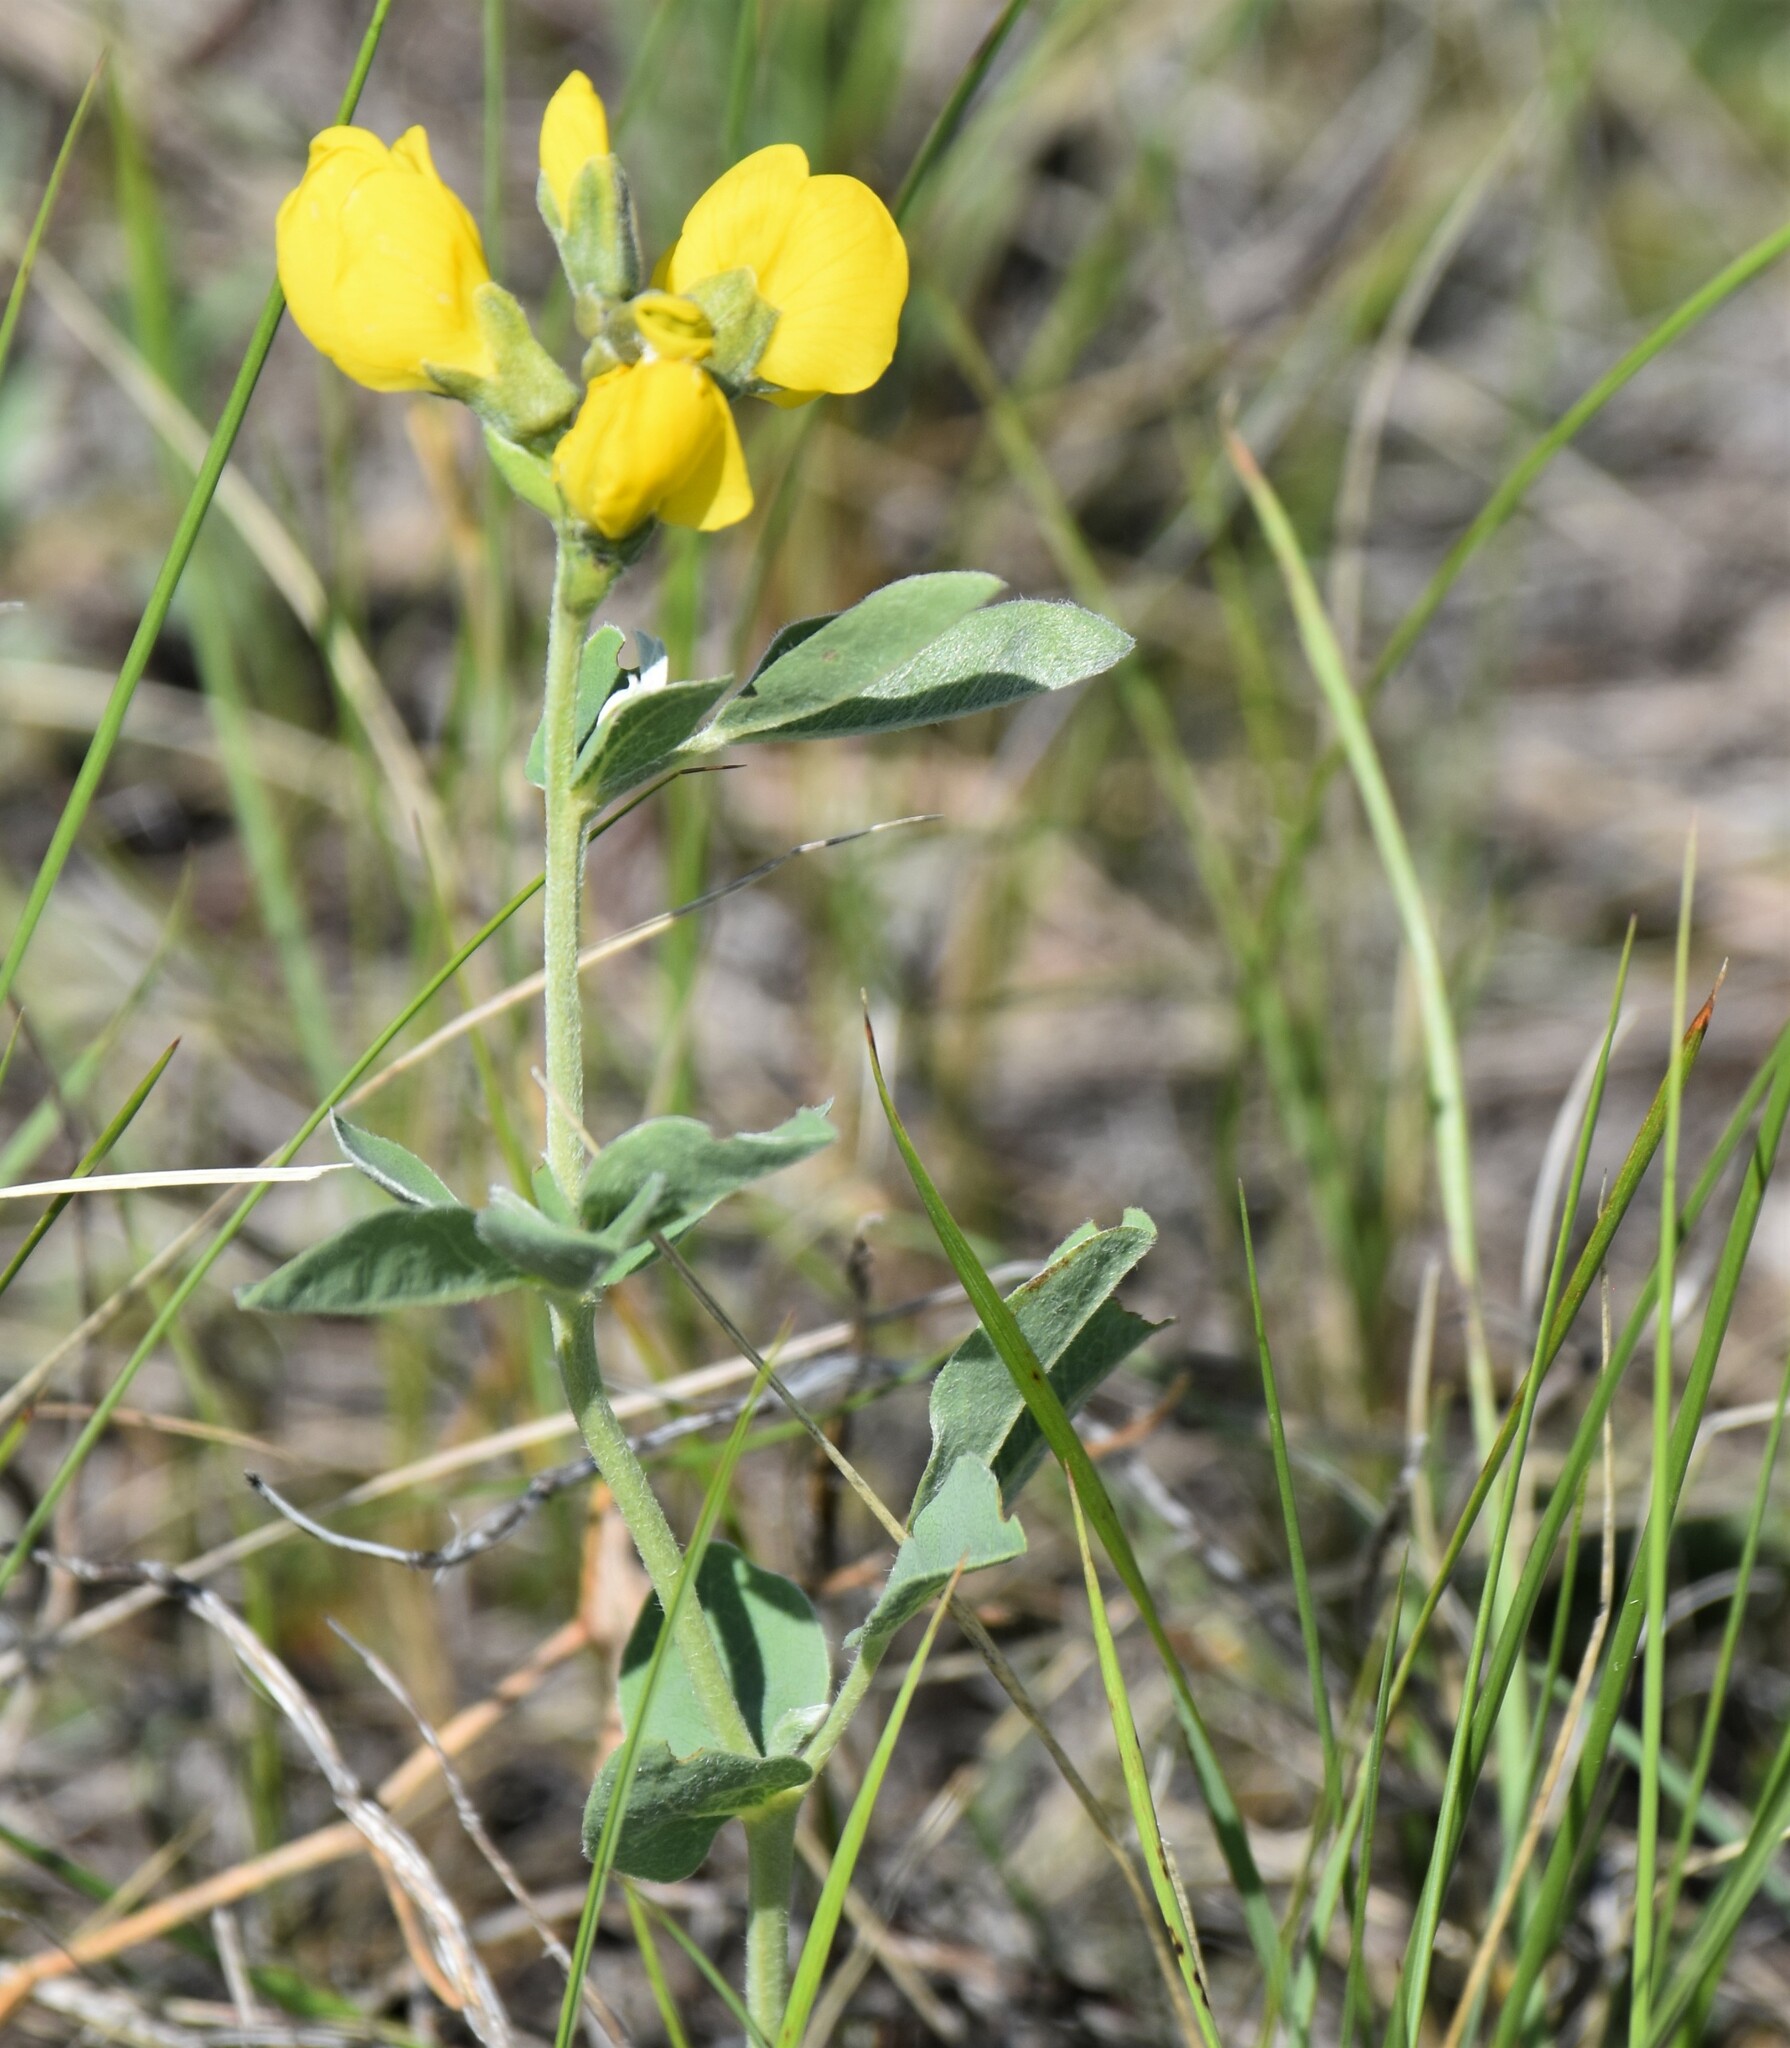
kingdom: Plantae
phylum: Tracheophyta
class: Magnoliopsida
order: Fabales
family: Fabaceae
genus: Thermopsis
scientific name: Thermopsis rhombifolia
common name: Circle-pod-pea
